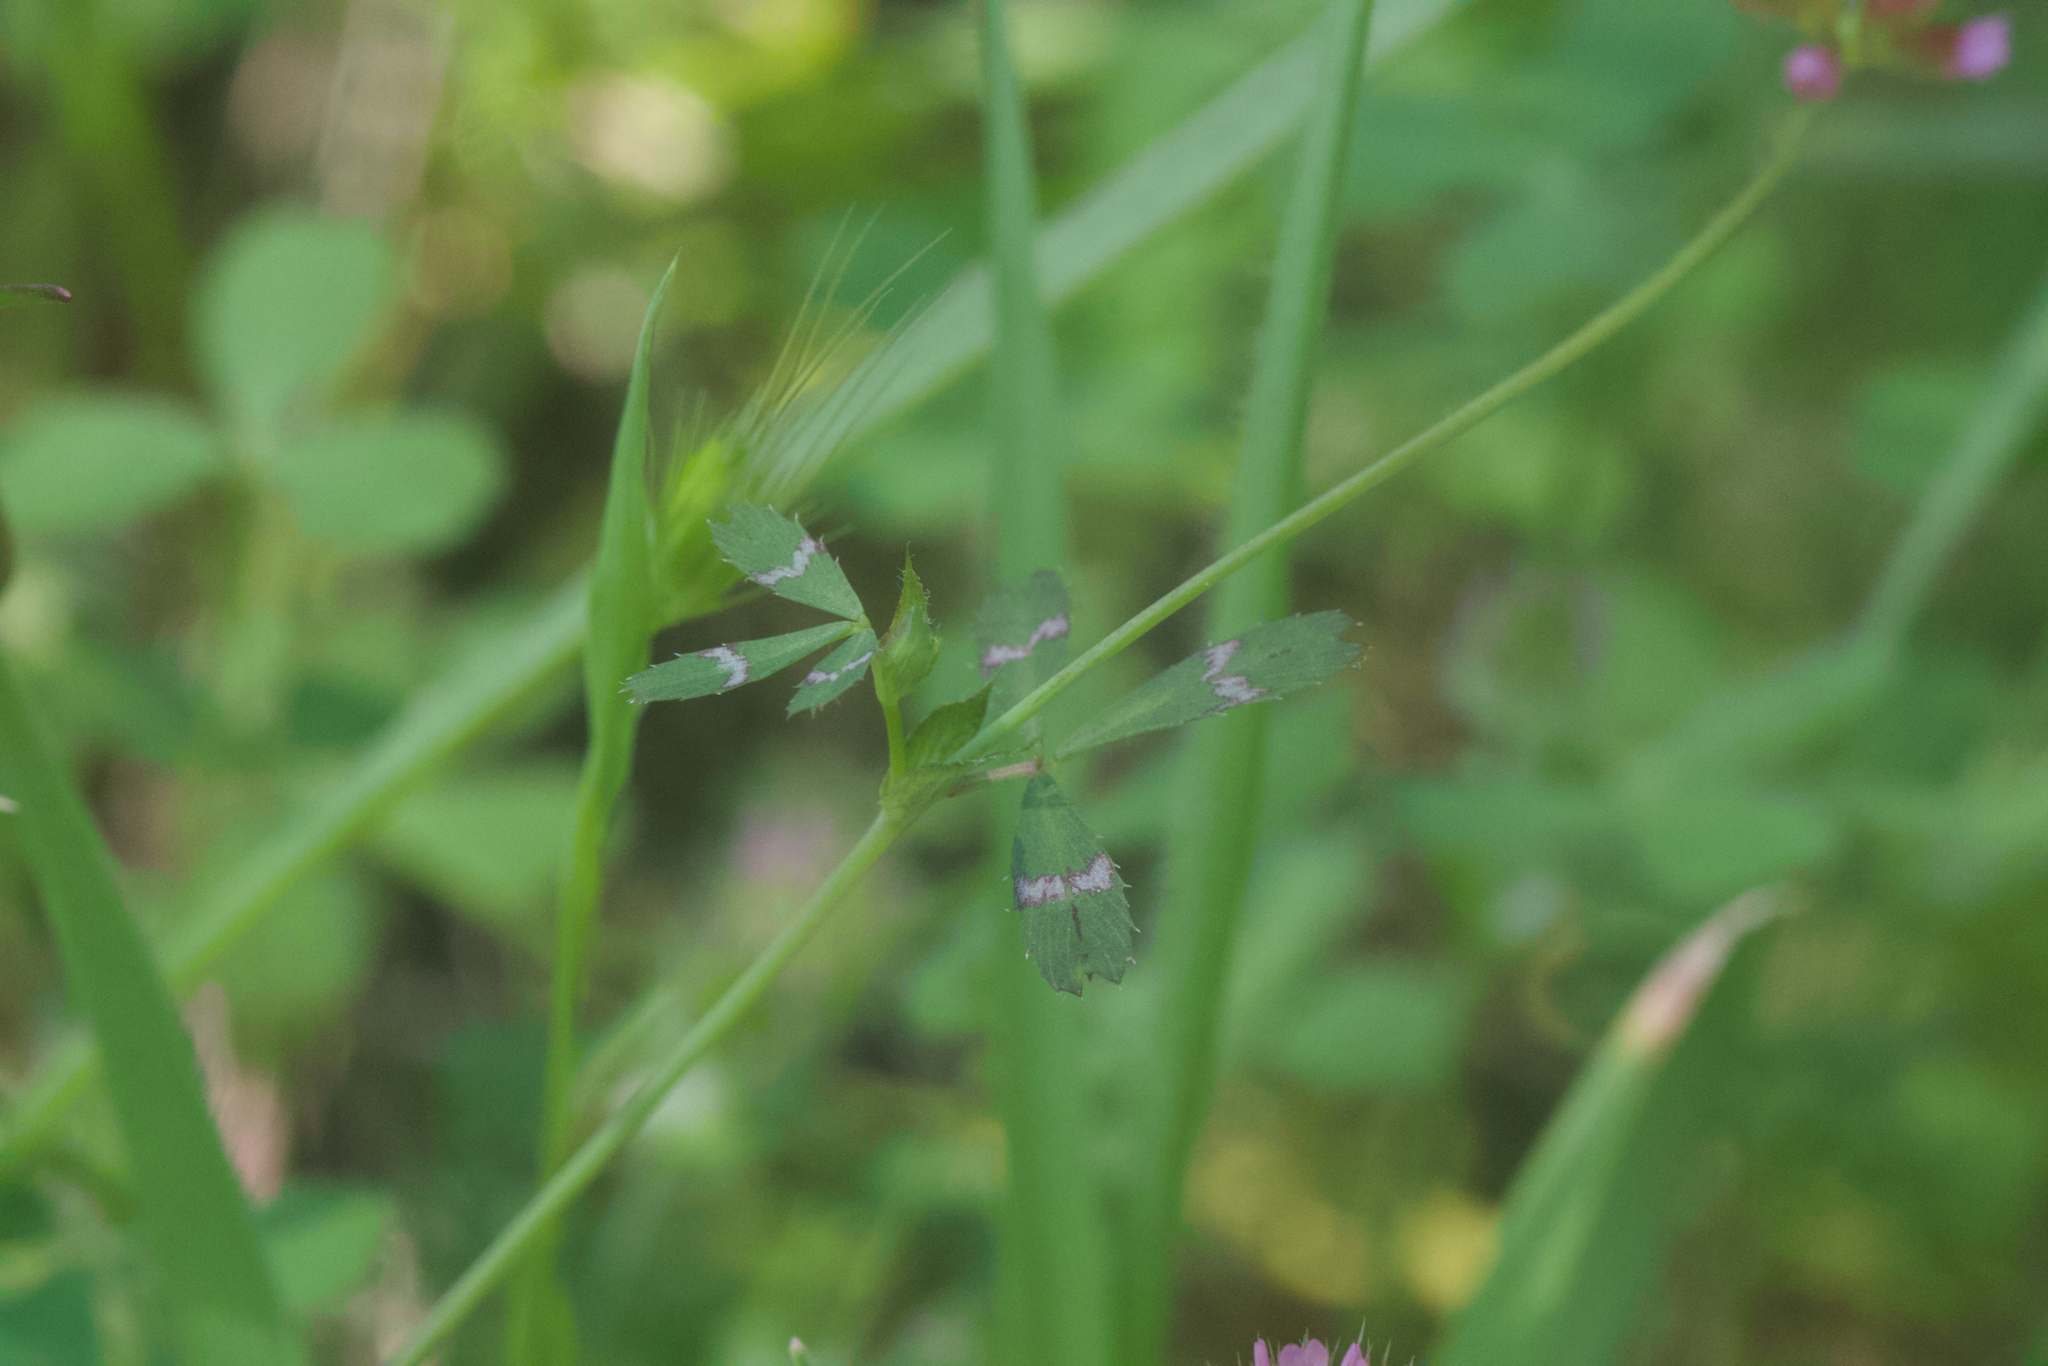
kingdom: Plantae
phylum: Tracheophyta
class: Magnoliopsida
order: Fabales
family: Fabaceae
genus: Trifolium
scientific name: Trifolium bifidum
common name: Notch-leaf clover
